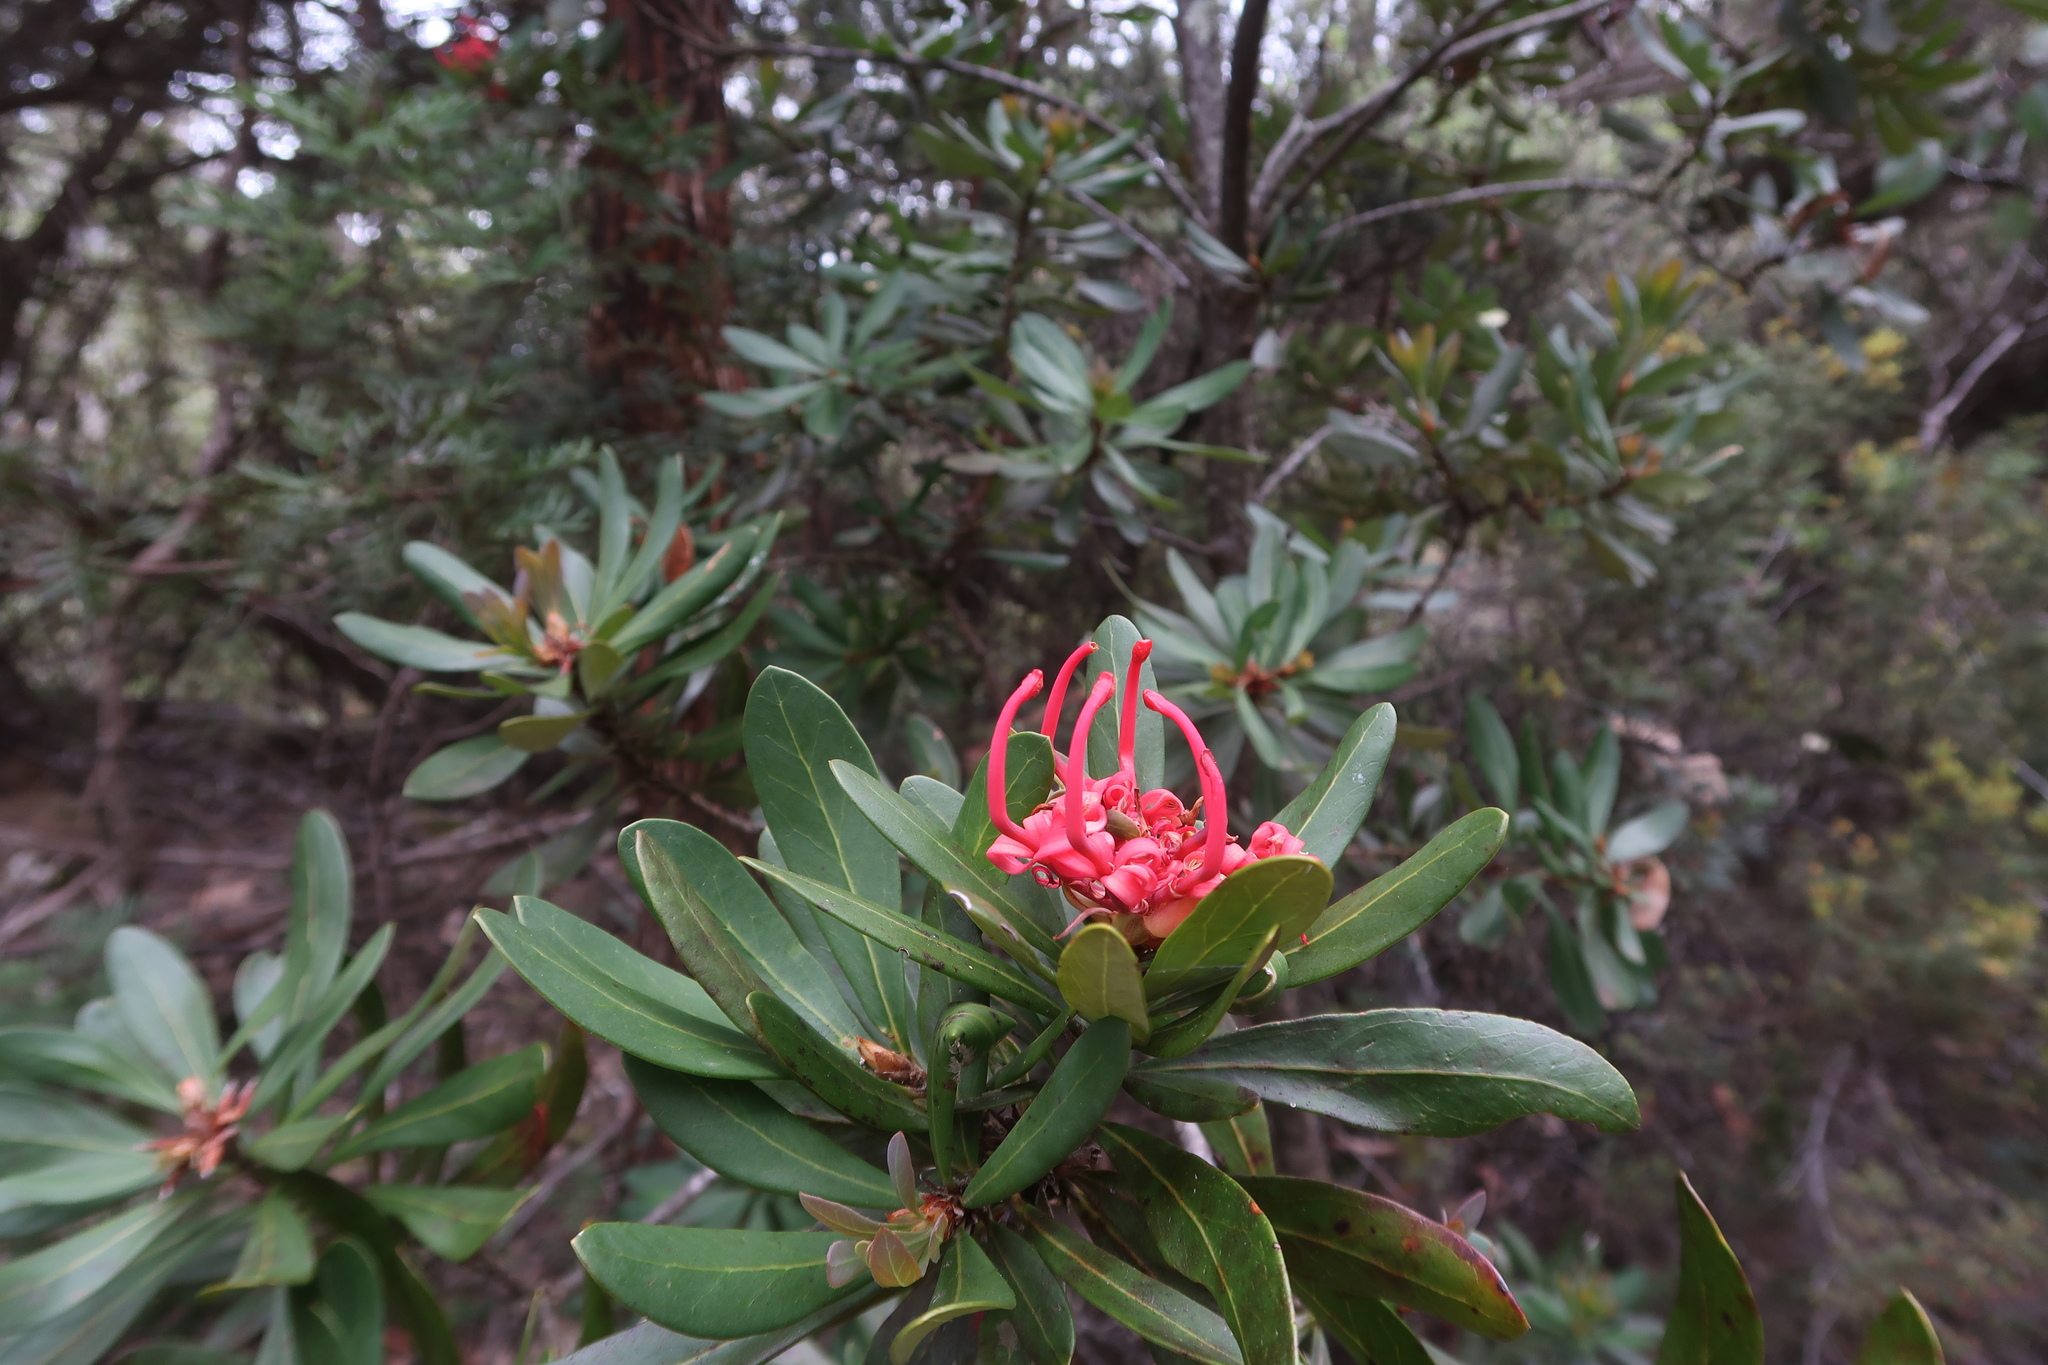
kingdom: Plantae
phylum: Tracheophyta
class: Magnoliopsida
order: Proteales
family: Proteaceae
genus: Telopea
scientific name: Telopea truncata
